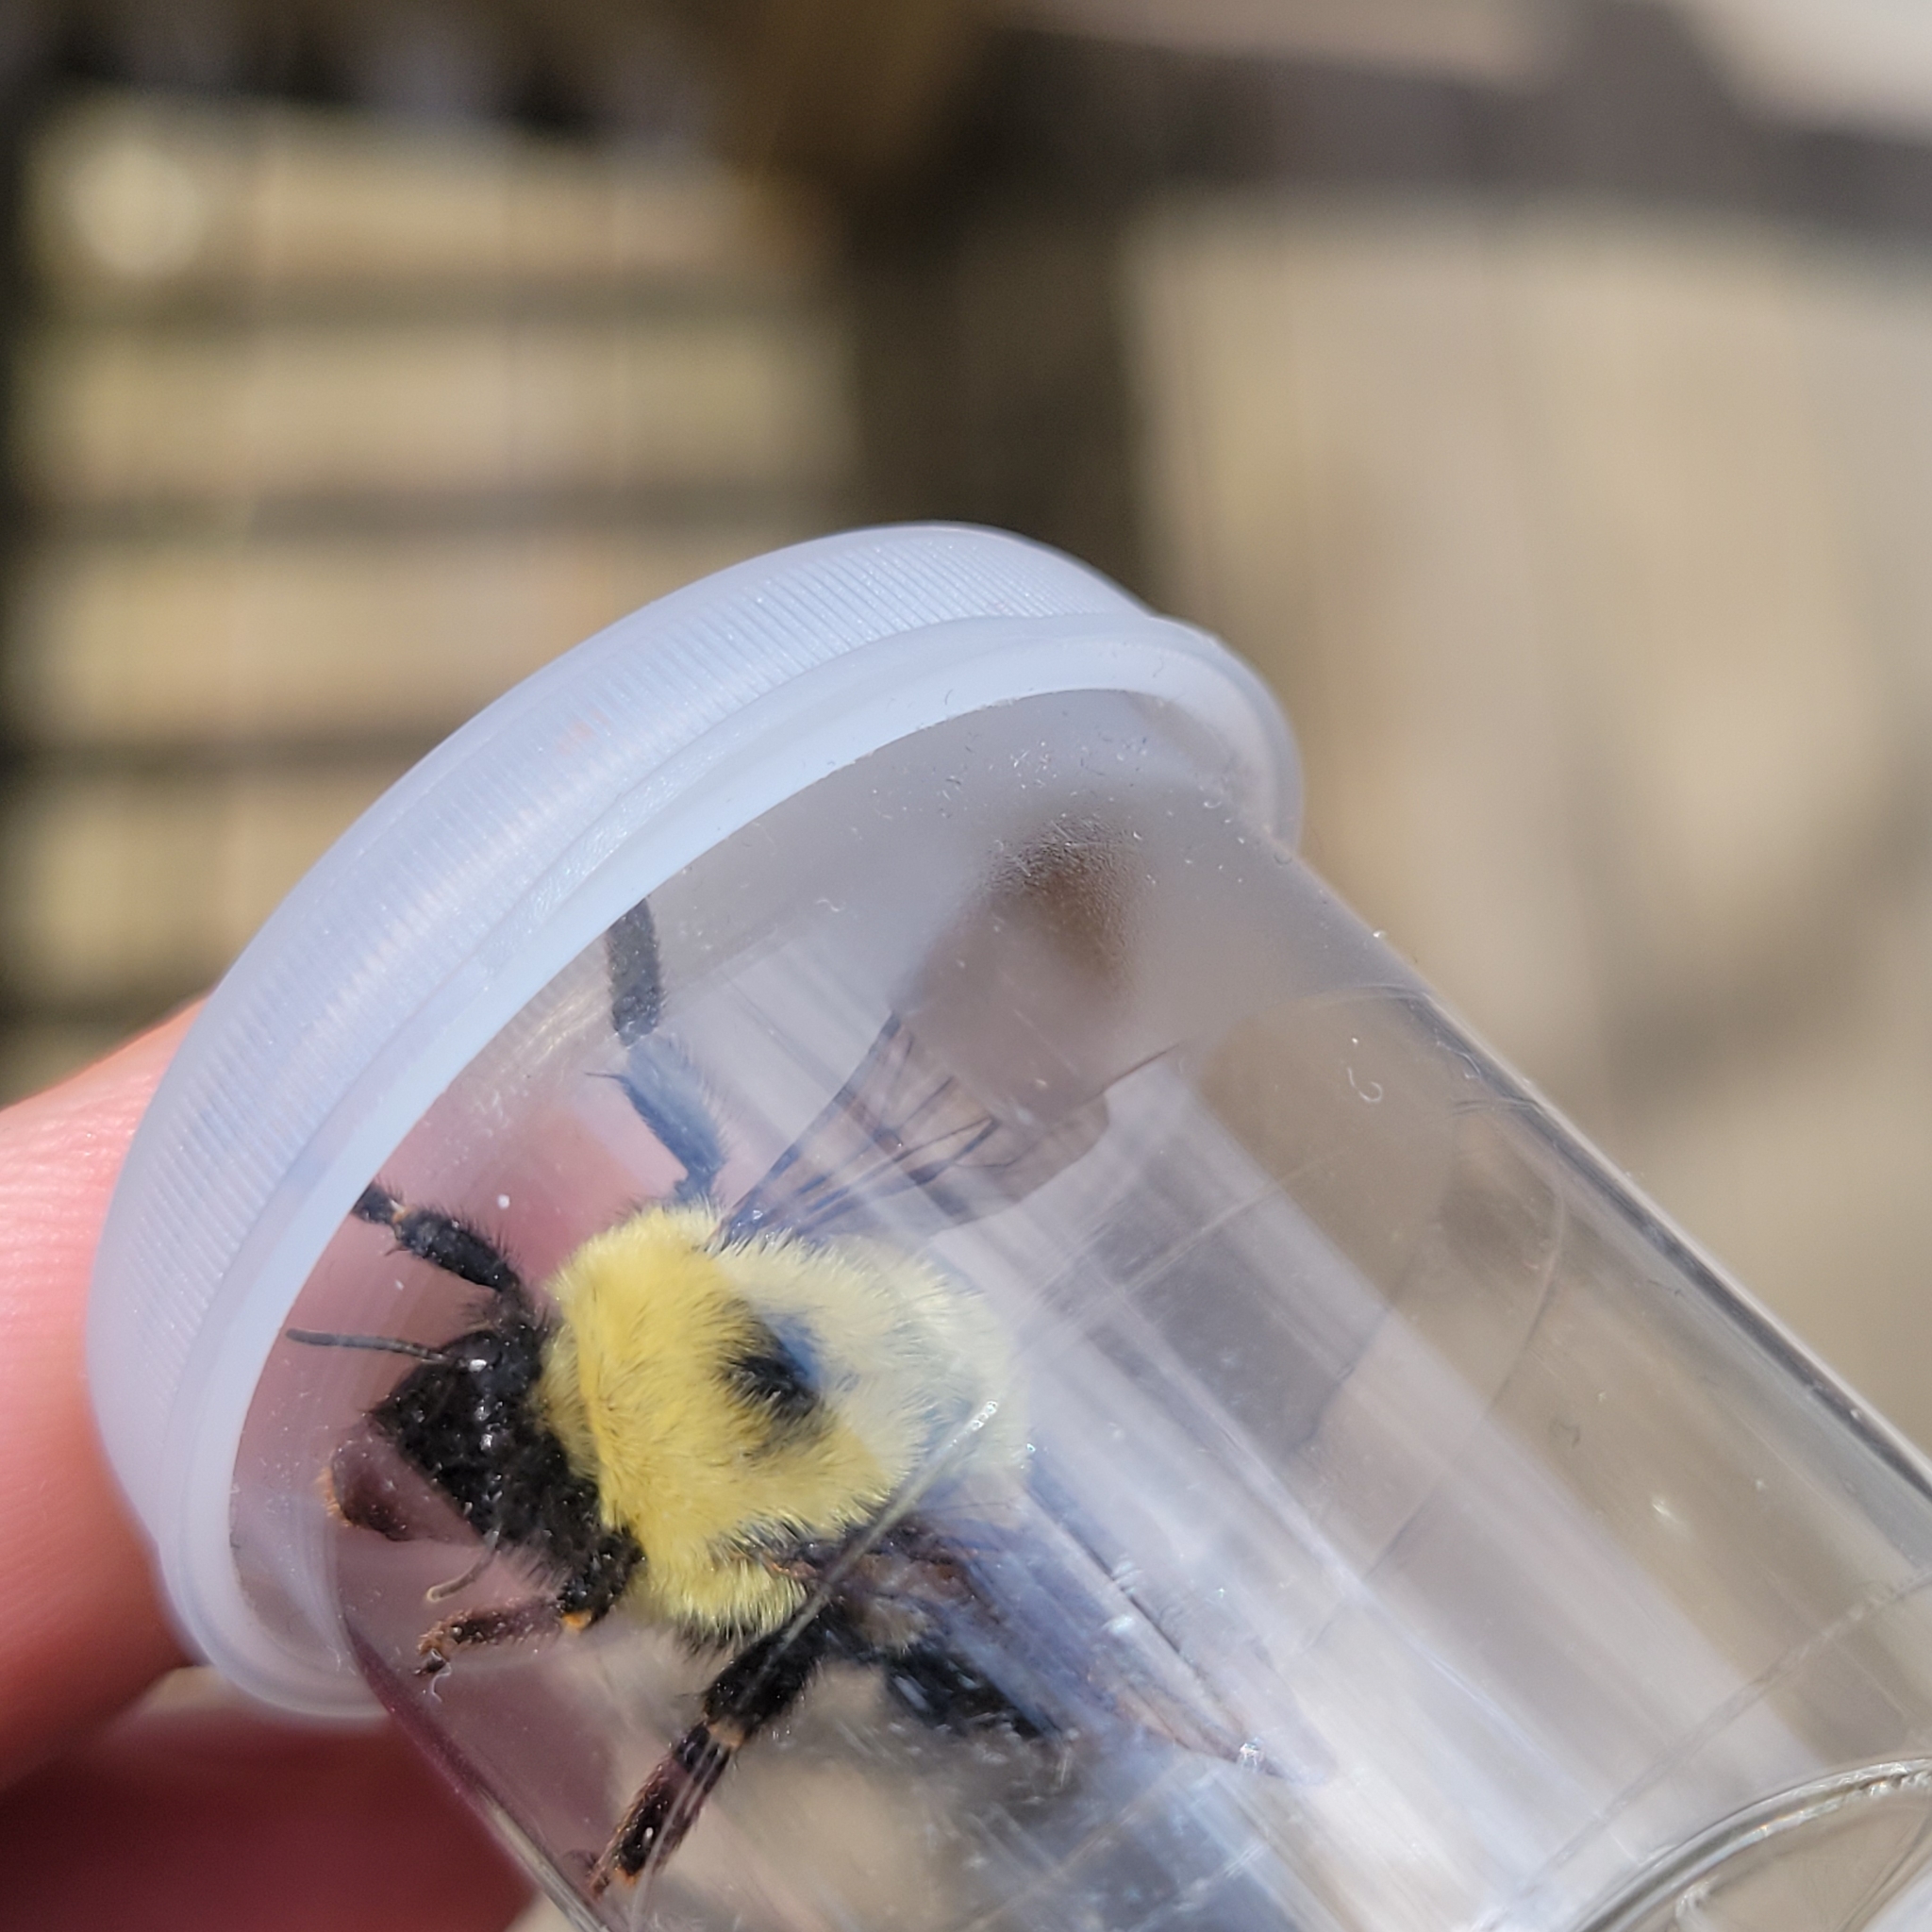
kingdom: Animalia
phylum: Arthropoda
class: Insecta
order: Hymenoptera
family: Apidae
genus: Bombus
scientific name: Bombus bimaculatus
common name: Two-spotted bumble bee
